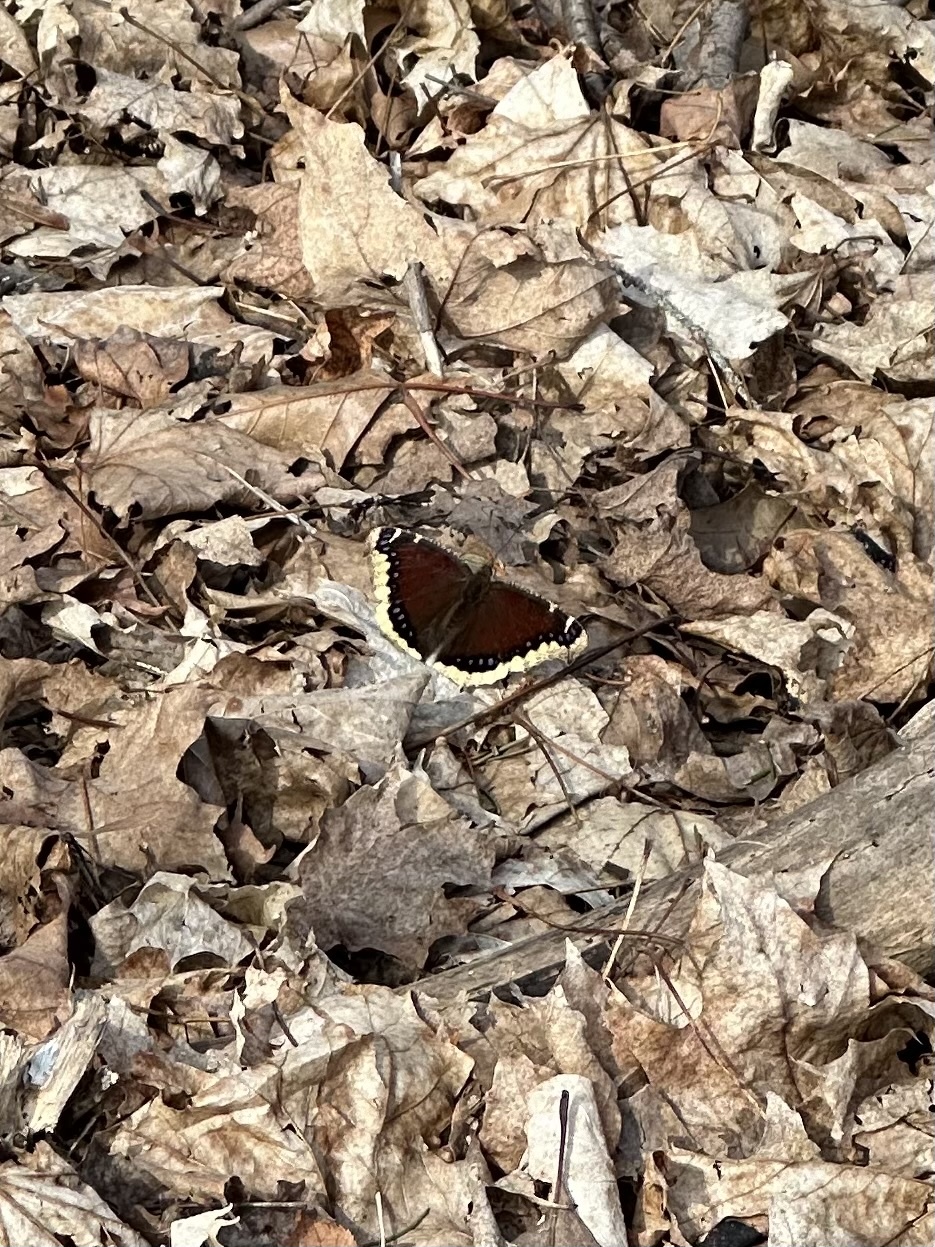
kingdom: Animalia
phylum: Arthropoda
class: Insecta
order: Lepidoptera
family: Nymphalidae
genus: Nymphalis
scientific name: Nymphalis antiopa
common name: Camberwell beauty
